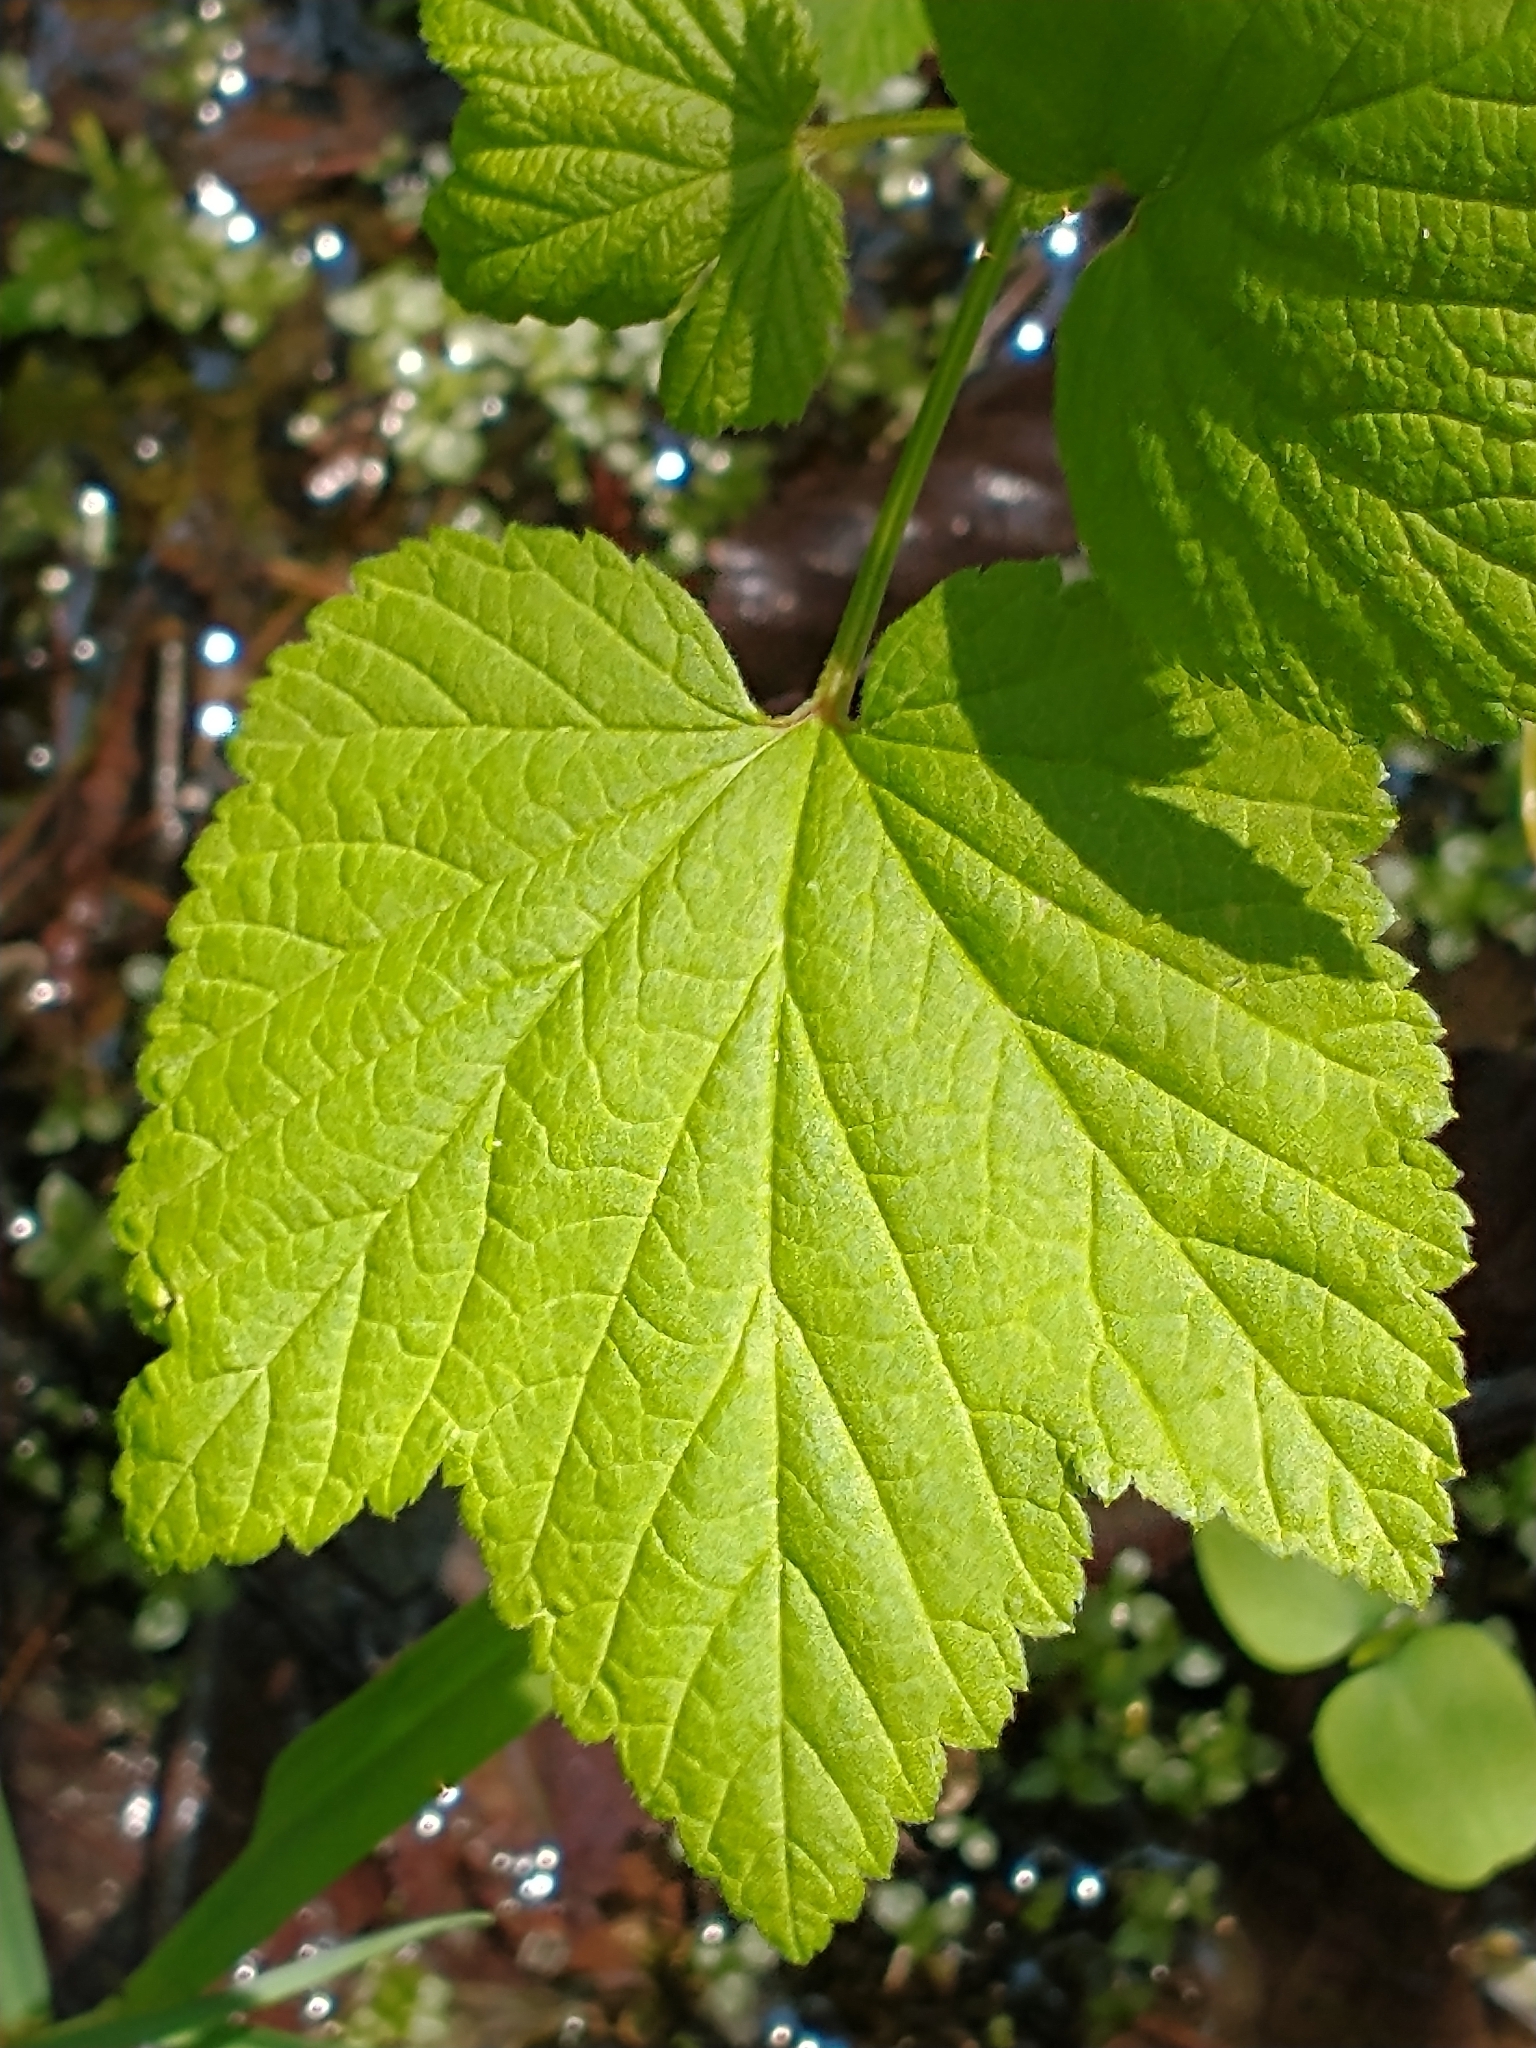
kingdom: Plantae
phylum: Tracheophyta
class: Magnoliopsida
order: Saxifragales
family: Grossulariaceae
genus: Ribes
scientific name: Ribes triste
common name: Swamp red currant
